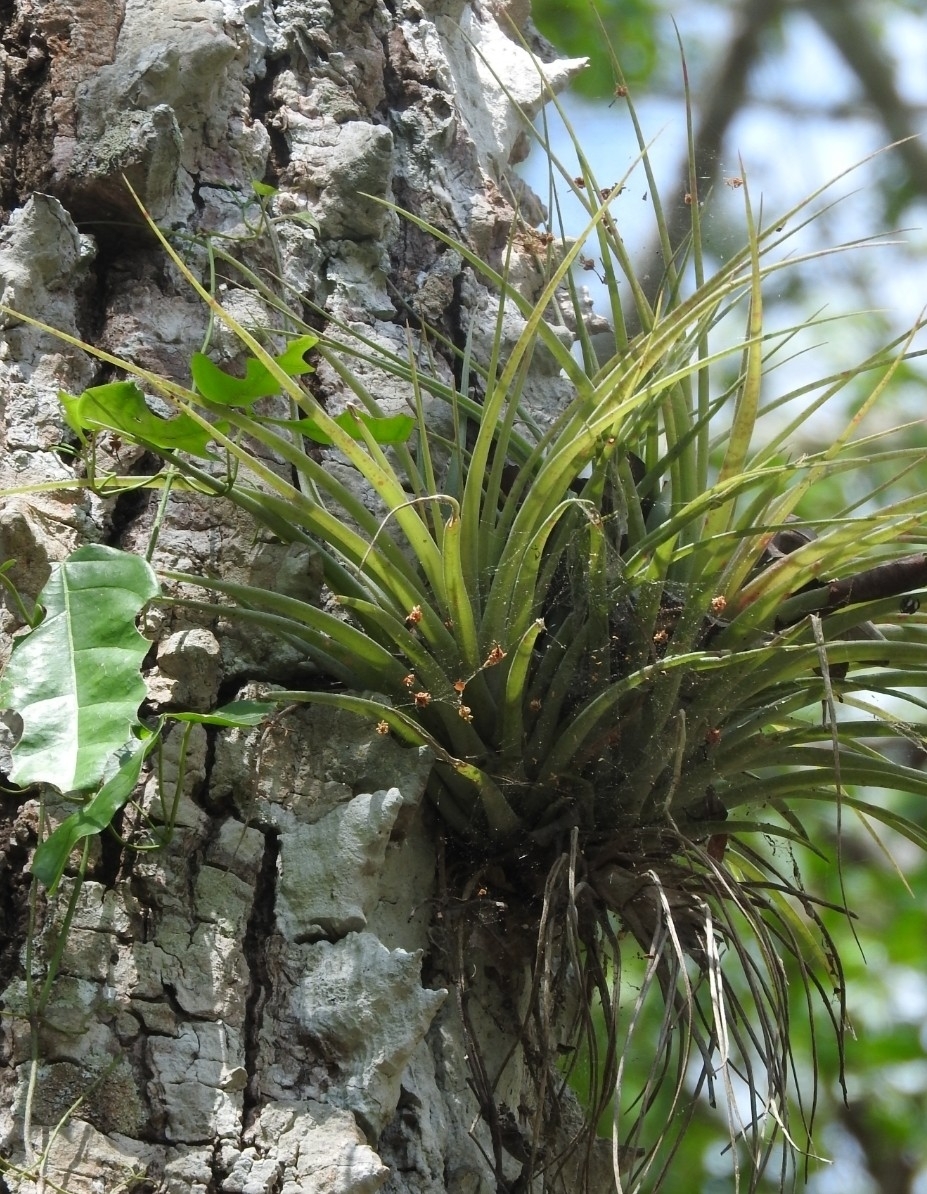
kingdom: Plantae
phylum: Tracheophyta
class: Liliopsida
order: Poales
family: Bromeliaceae
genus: Tillandsia
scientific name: Tillandsia fasciculata
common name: Giant airplant
